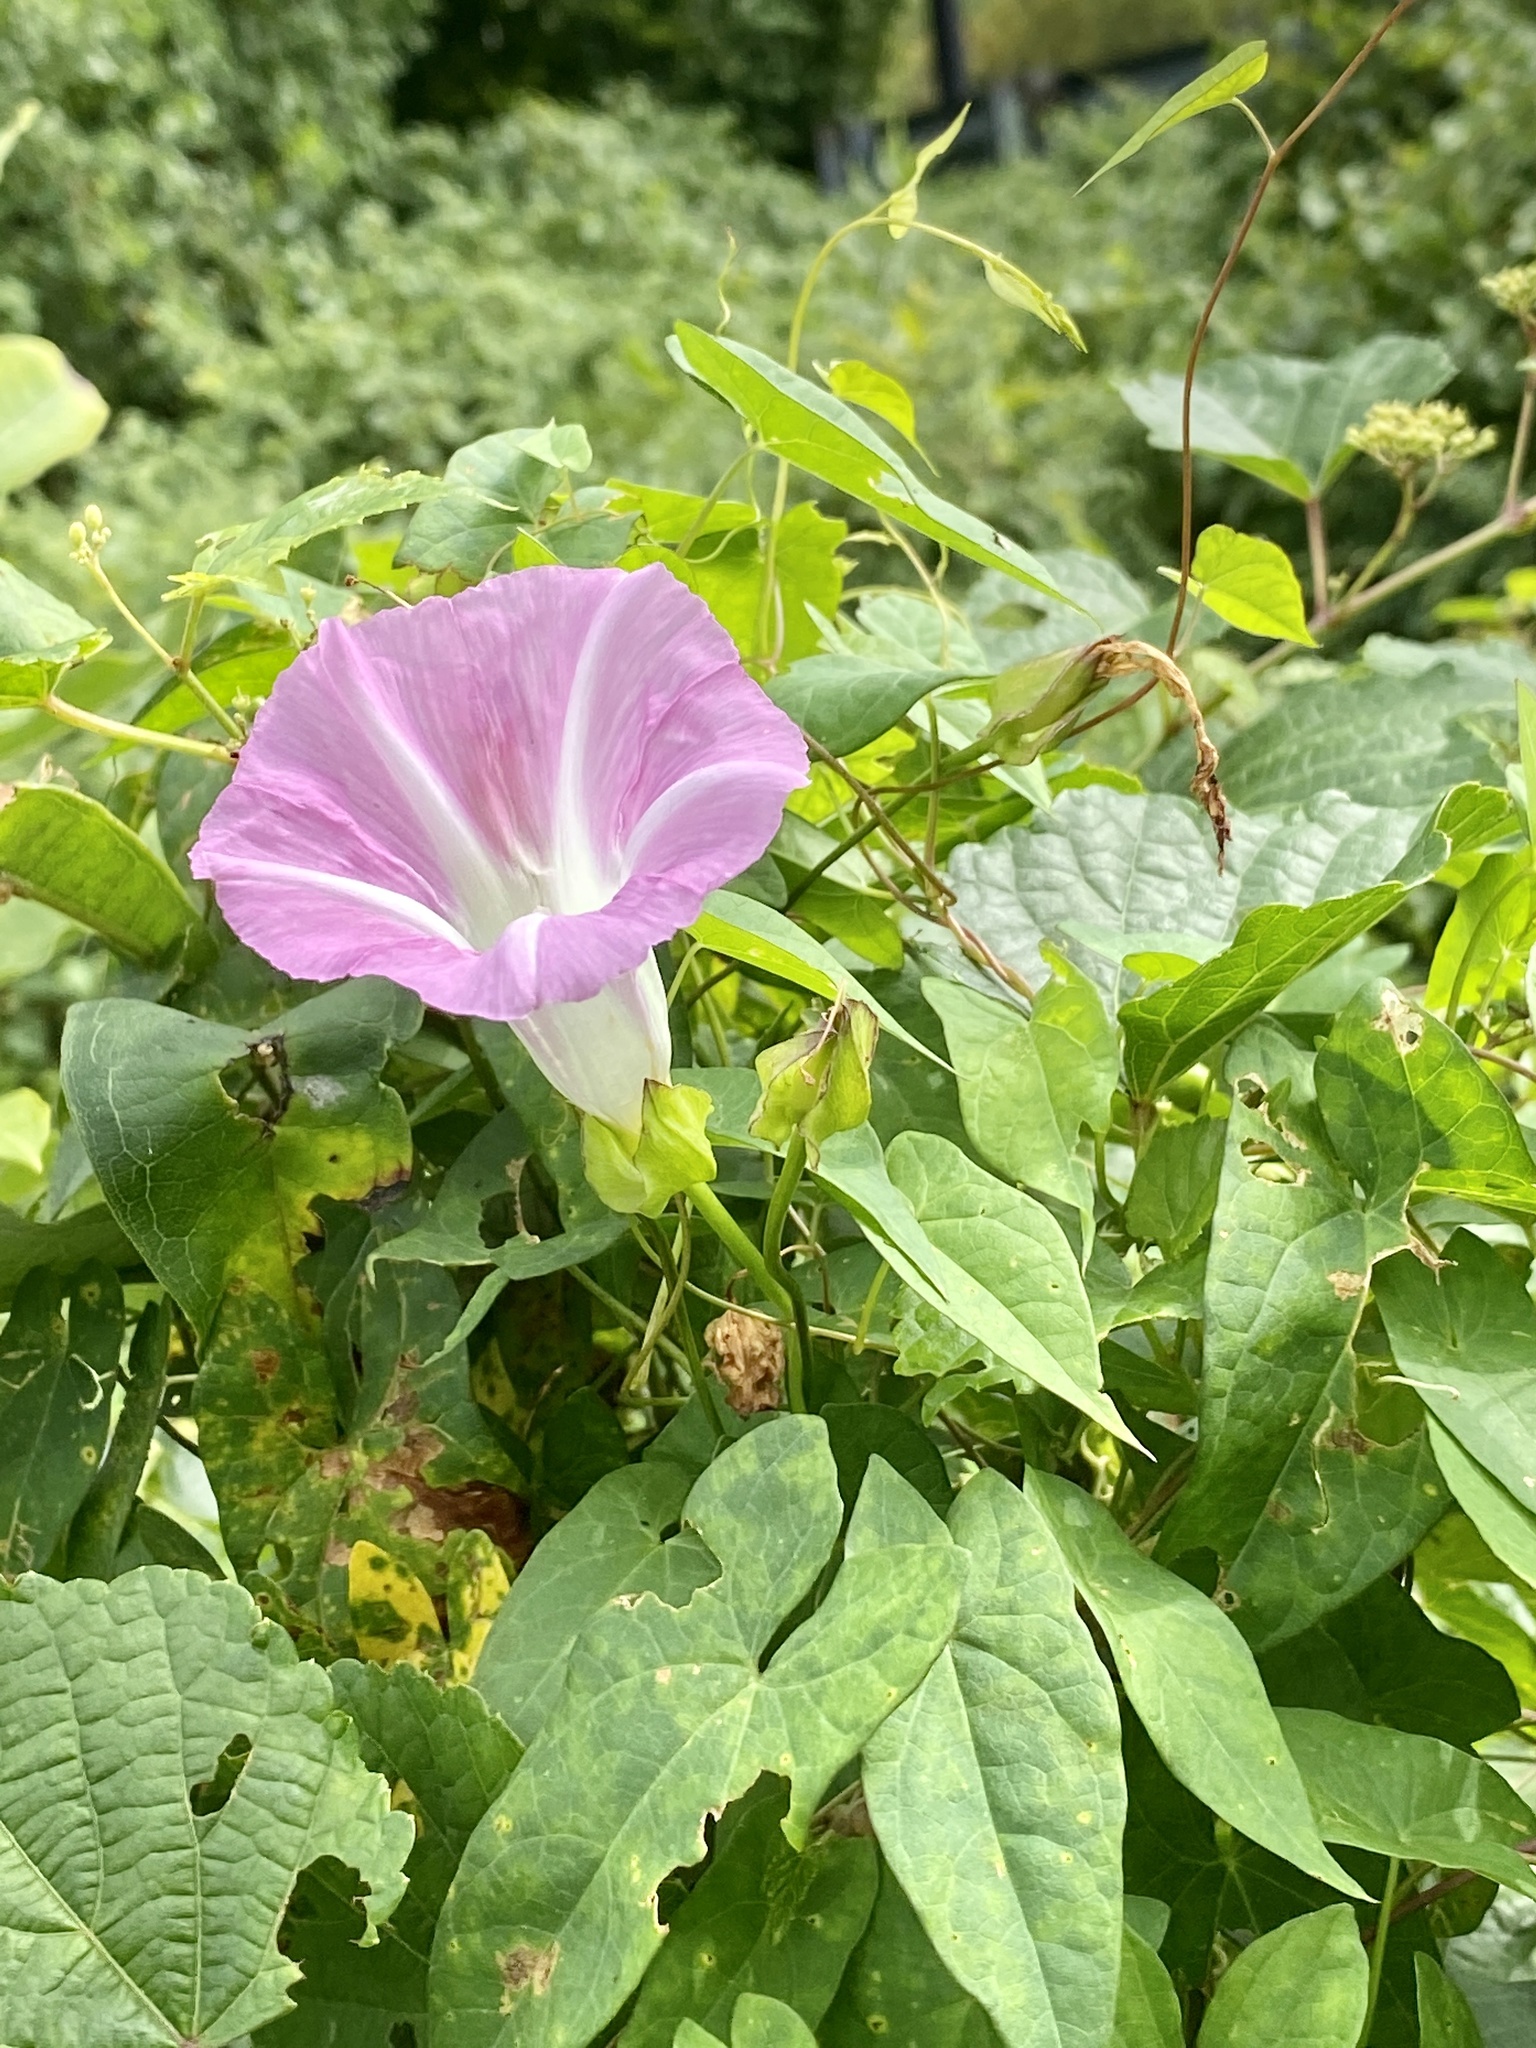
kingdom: Plantae
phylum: Tracheophyta
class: Magnoliopsida
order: Solanales
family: Convolvulaceae
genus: Calystegia
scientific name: Calystegia sepium
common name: Hedge bindweed
